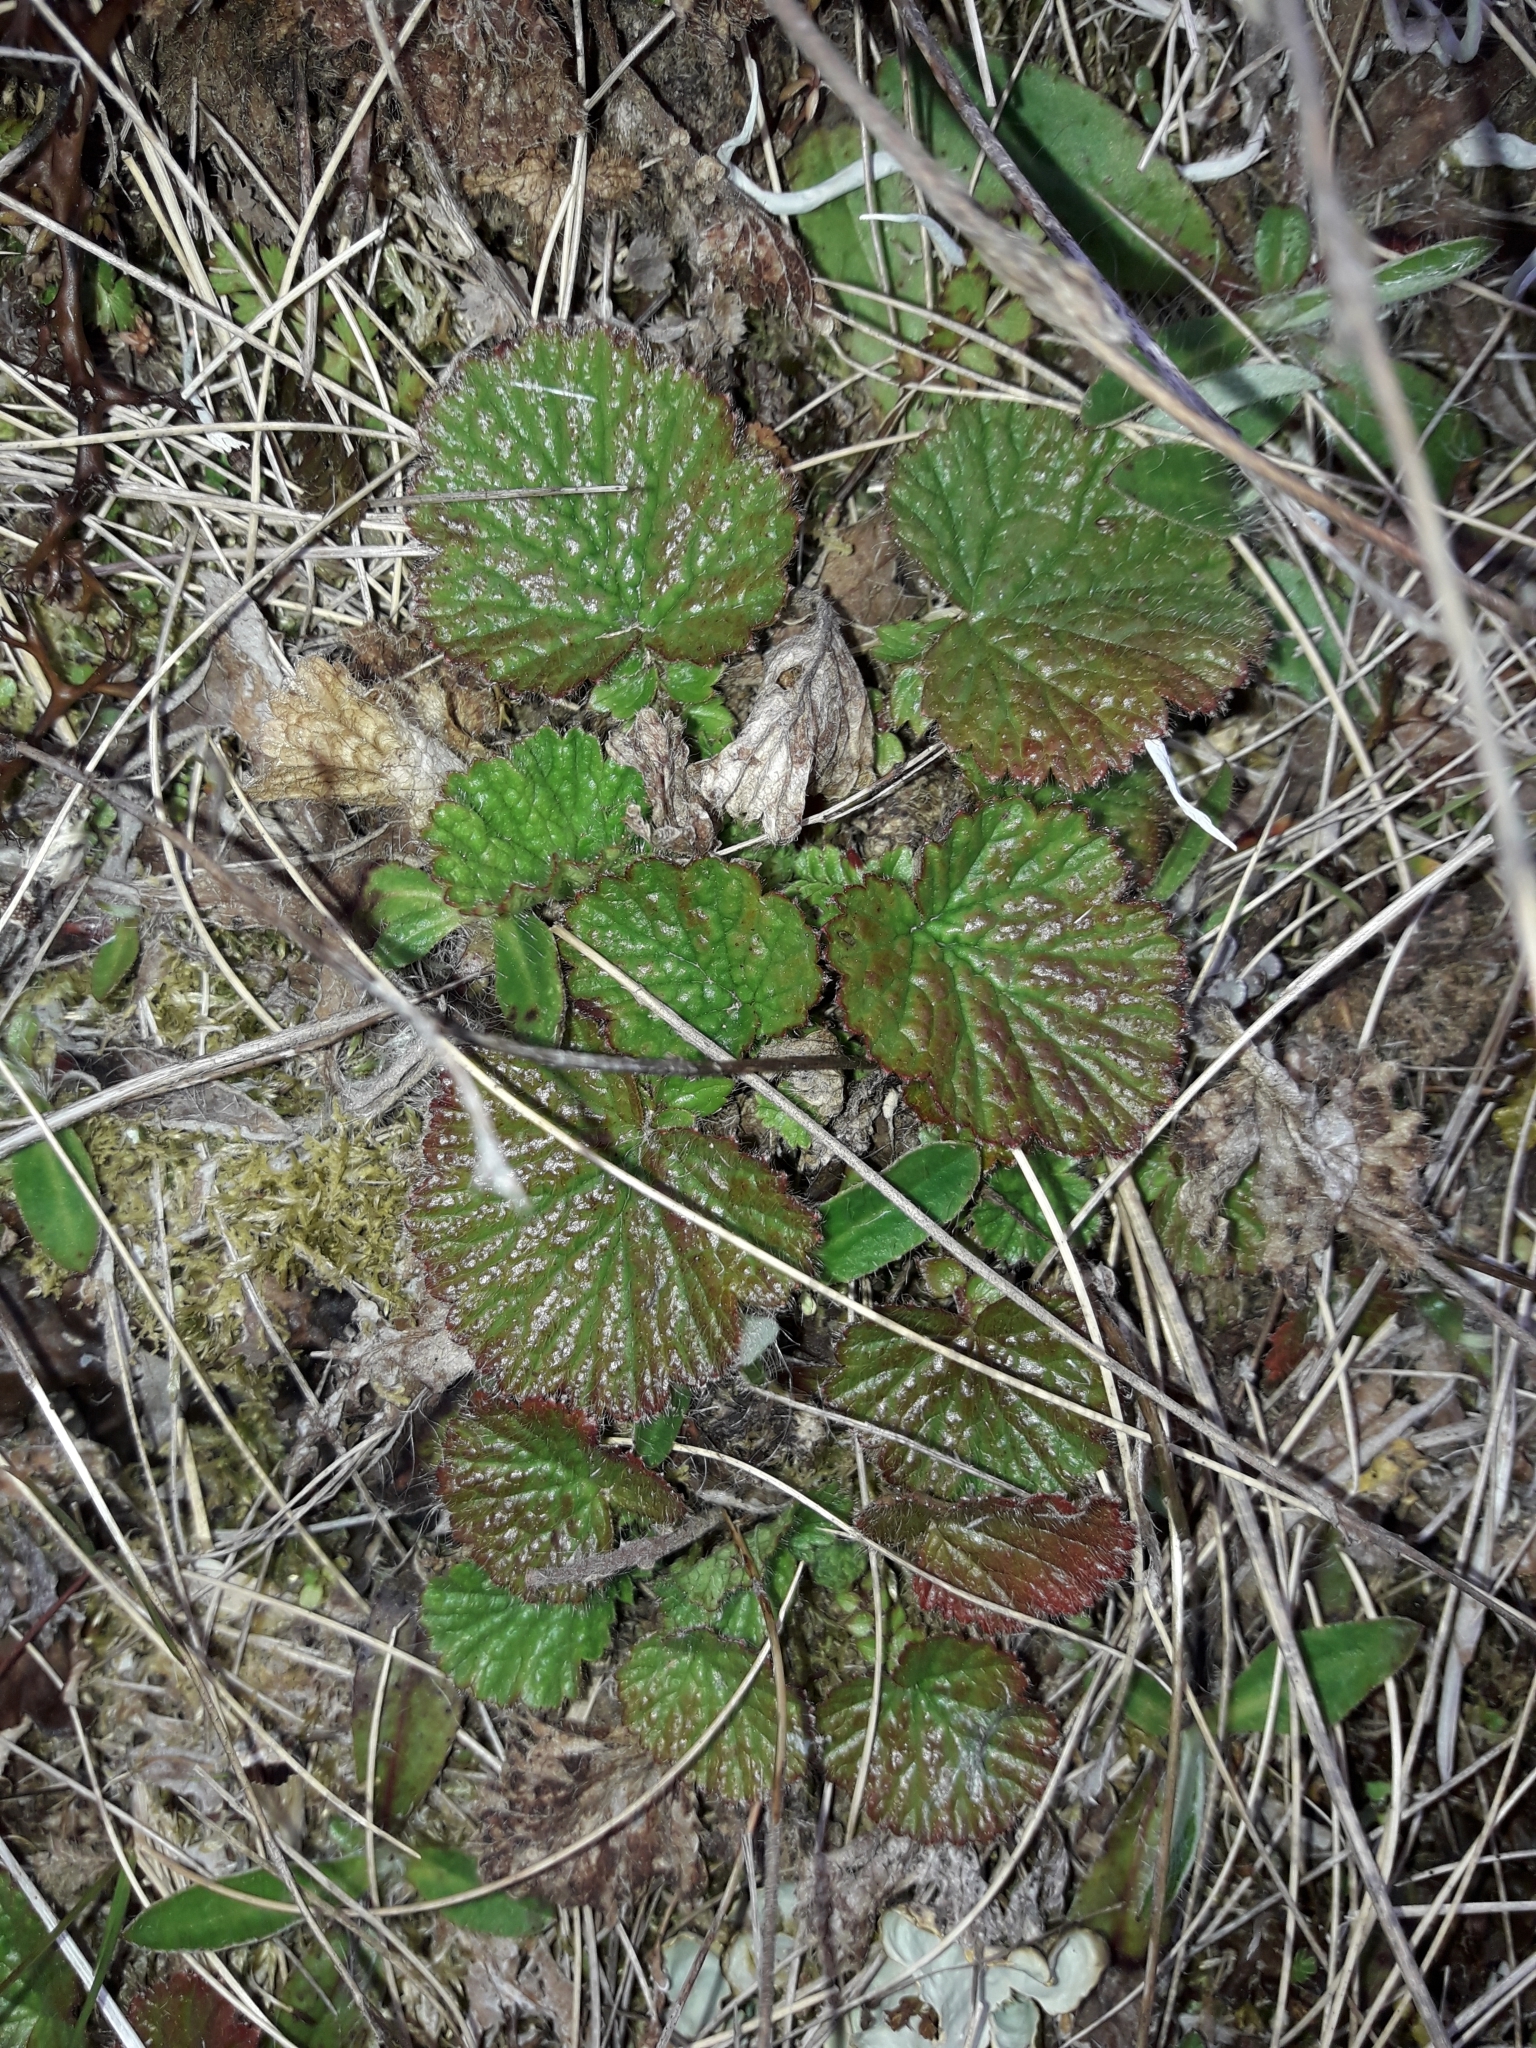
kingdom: Plantae
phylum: Tracheophyta
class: Magnoliopsida
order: Rosales
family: Rosaceae
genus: Geum
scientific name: Geum cockaynei
